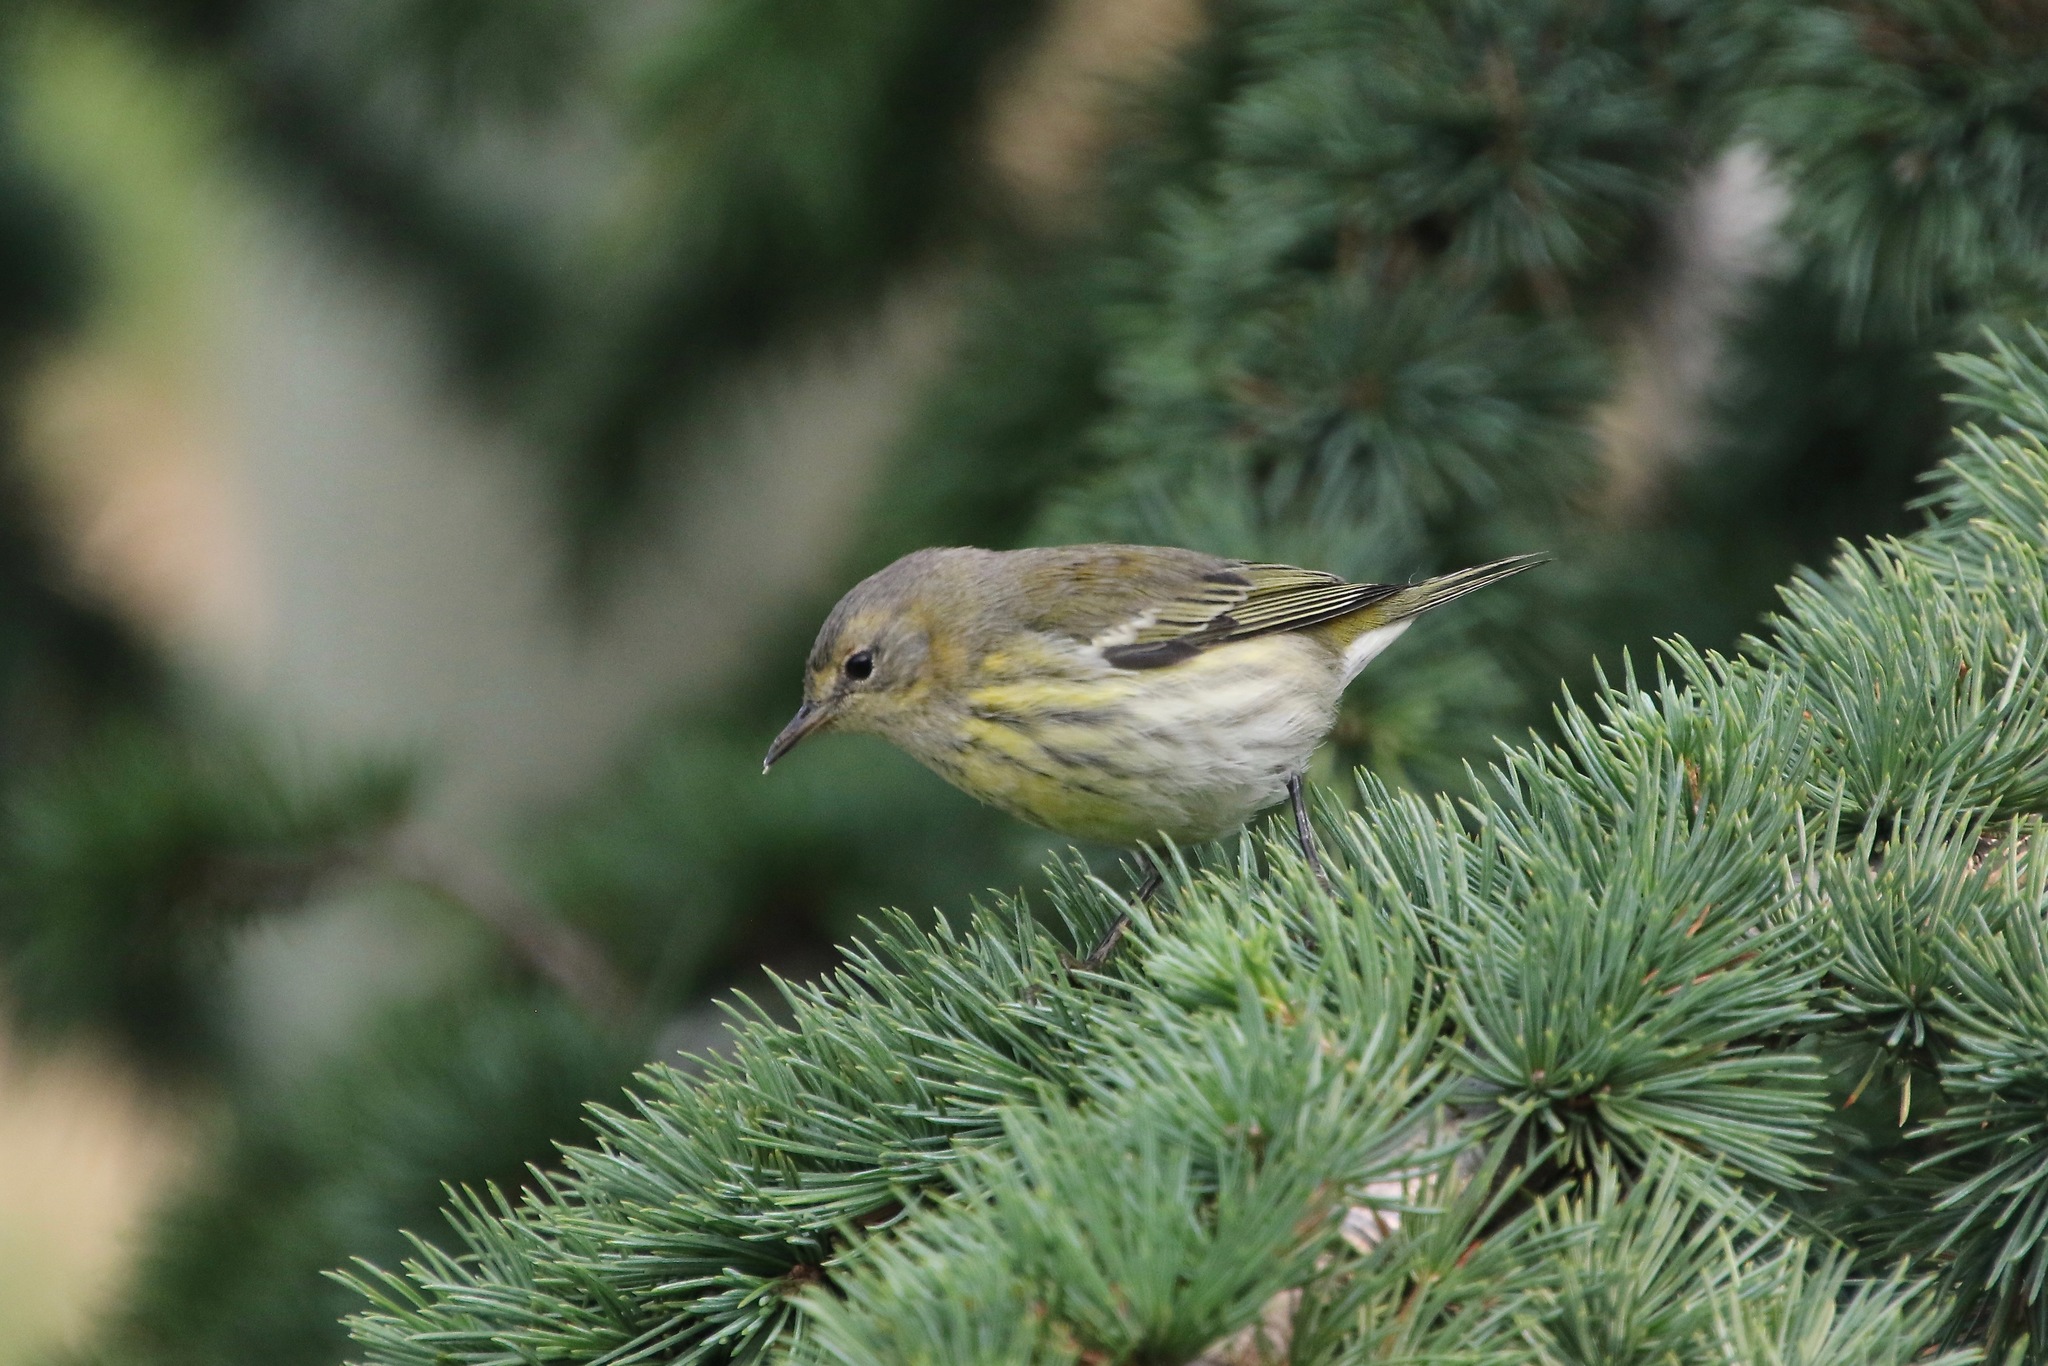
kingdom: Animalia
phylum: Chordata
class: Aves
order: Passeriformes
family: Parulidae
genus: Setophaga
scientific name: Setophaga tigrina
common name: Cape may warbler
